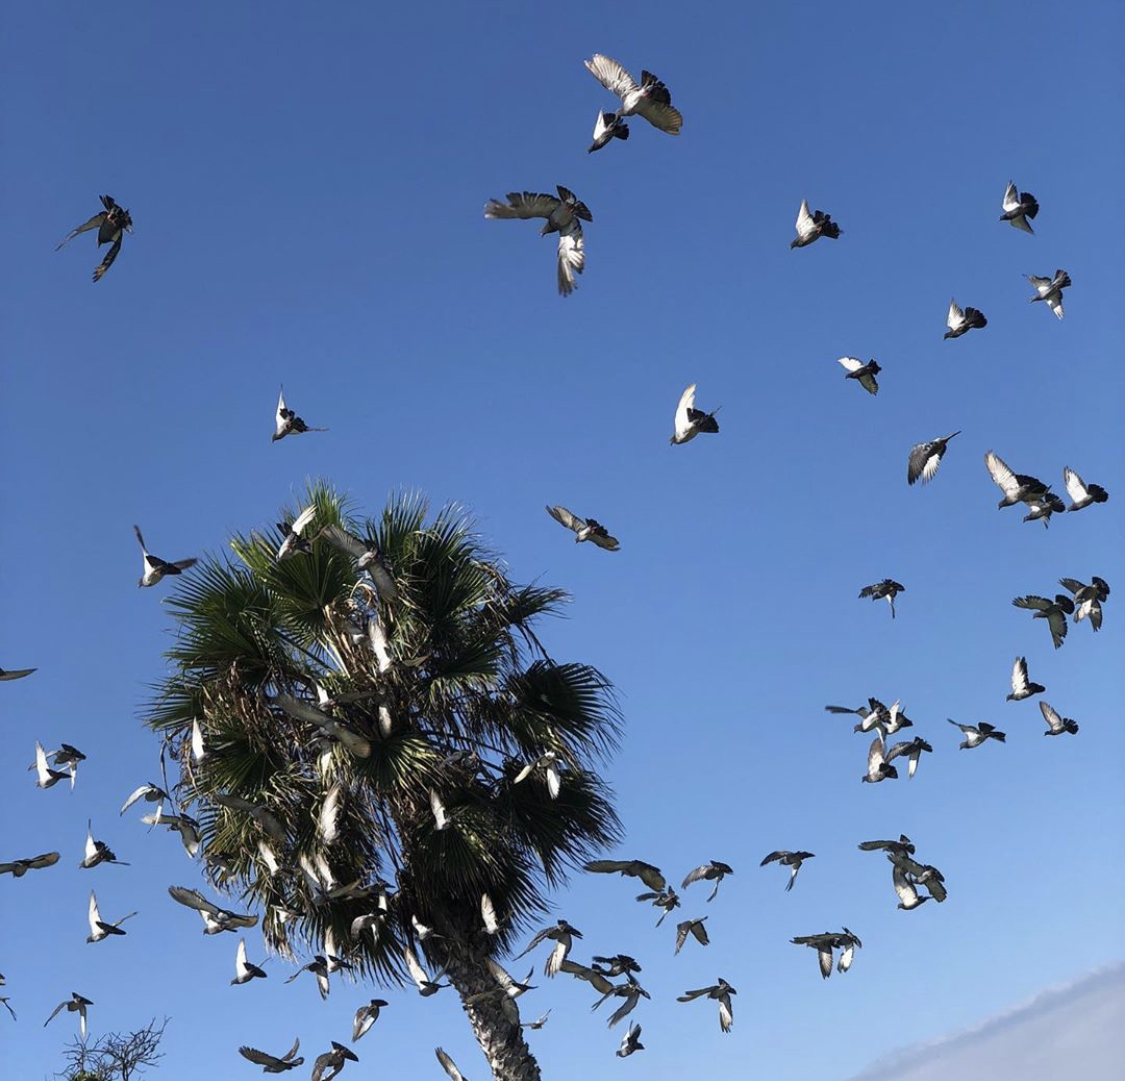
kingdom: Animalia
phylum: Chordata
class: Aves
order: Columbiformes
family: Columbidae
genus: Columba
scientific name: Columba livia
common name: Rock pigeon
